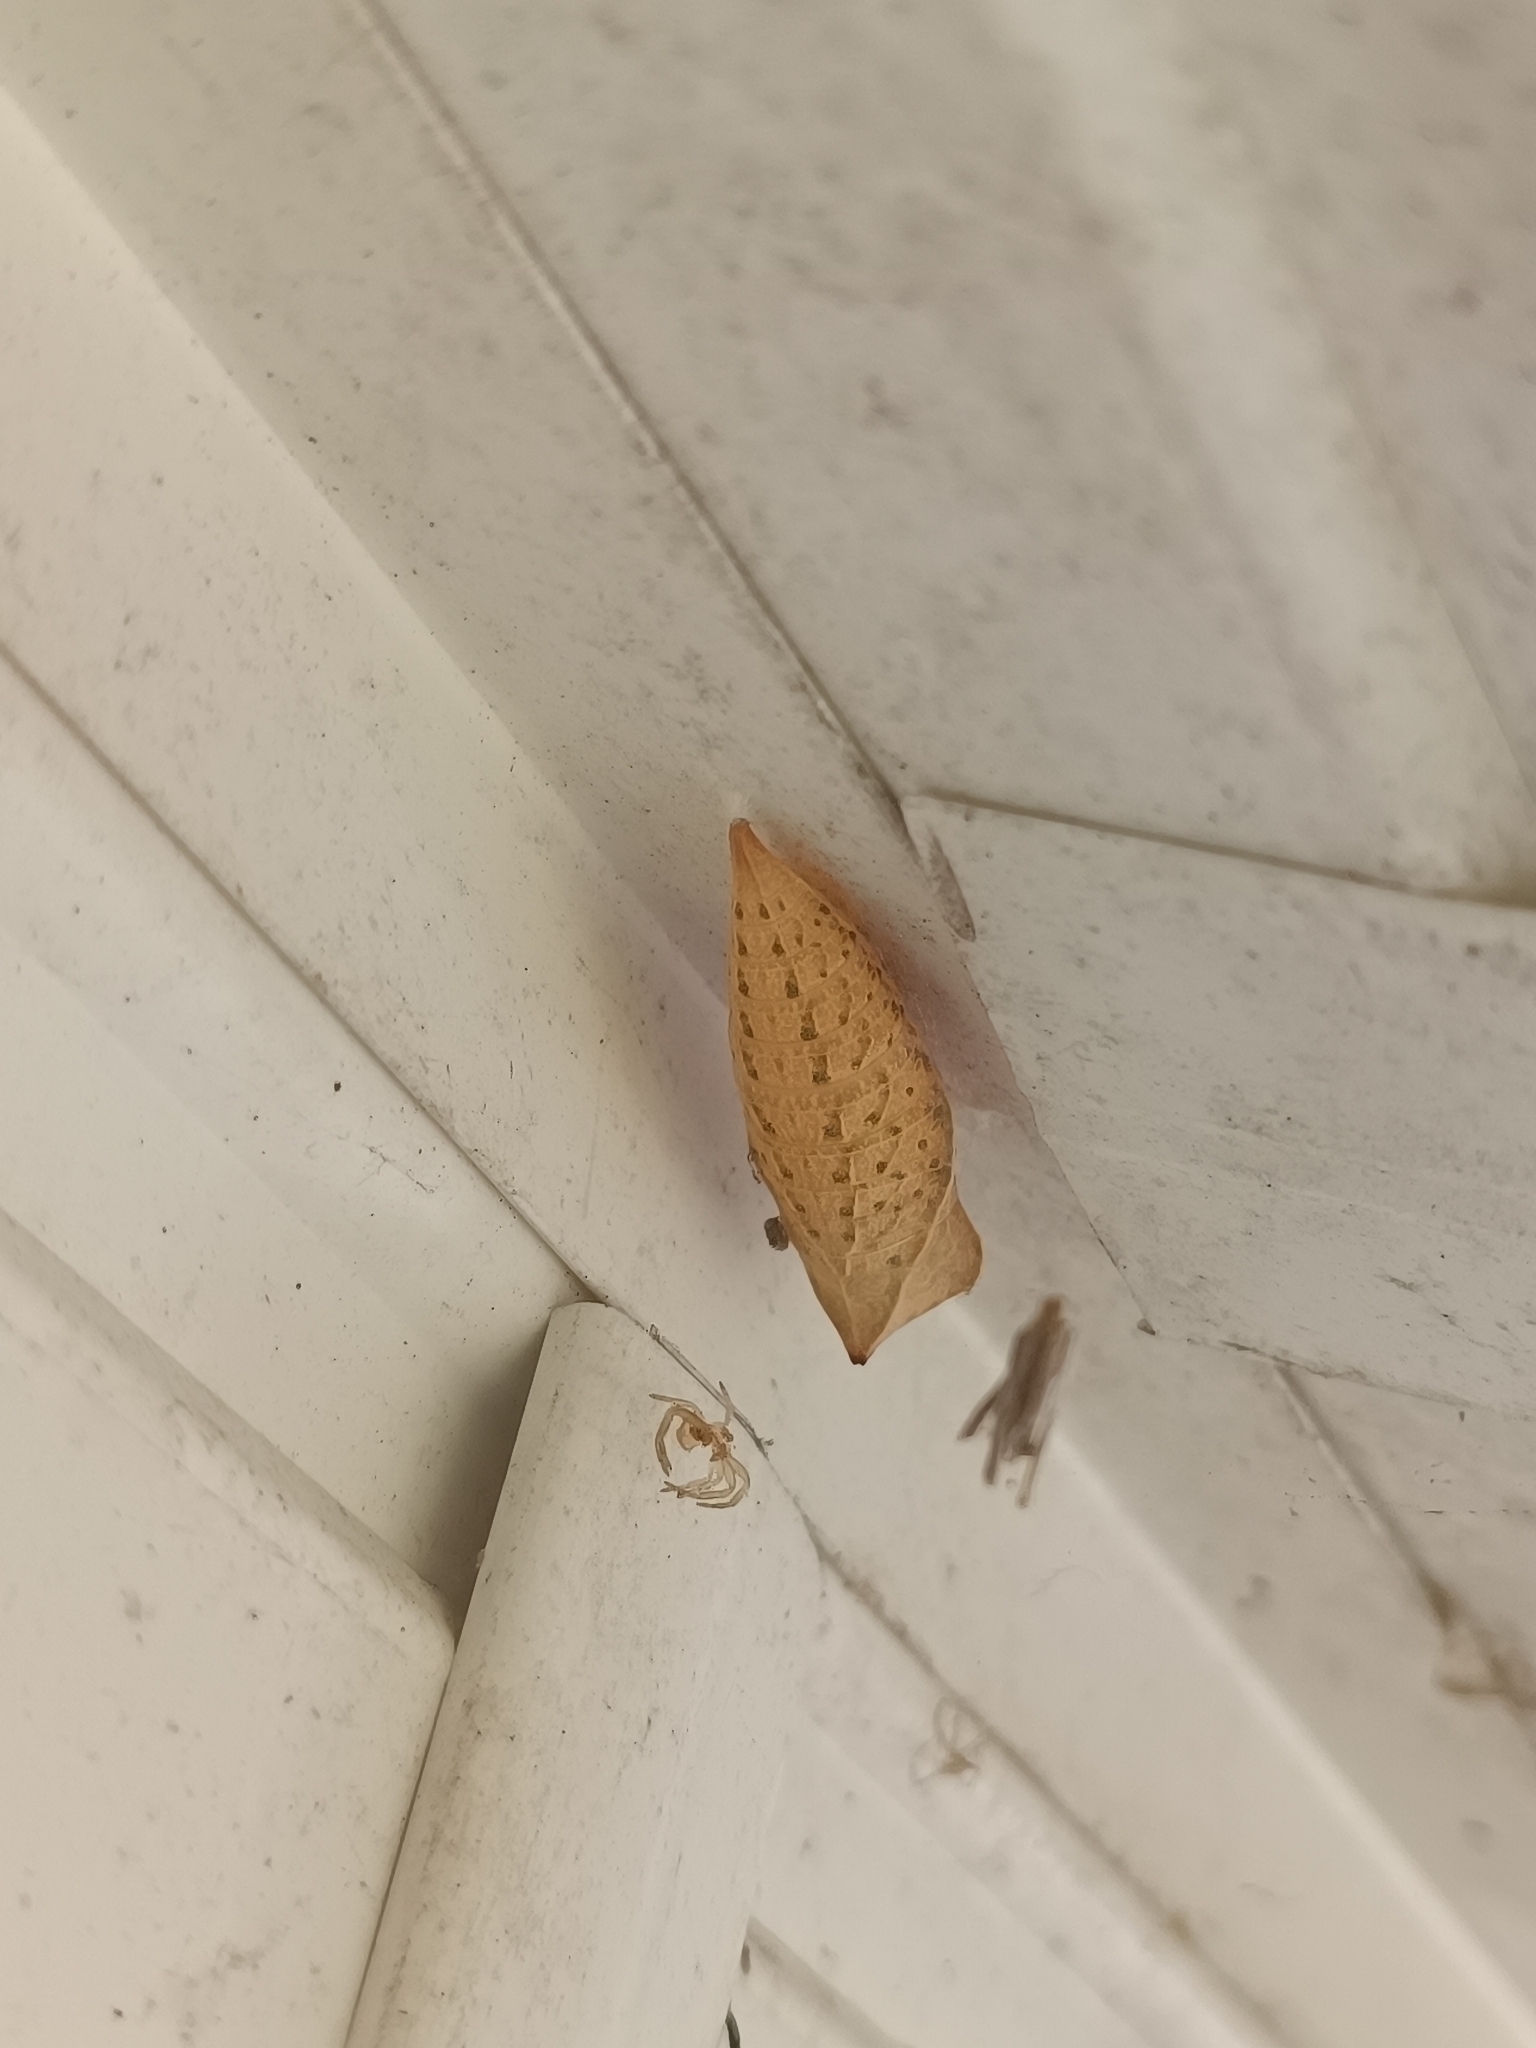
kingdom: Animalia
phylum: Arthropoda
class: Insecta
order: Lepidoptera
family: Papilionidae
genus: Iphiclides
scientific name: Iphiclides podalirius
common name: Scarce swallowtail
